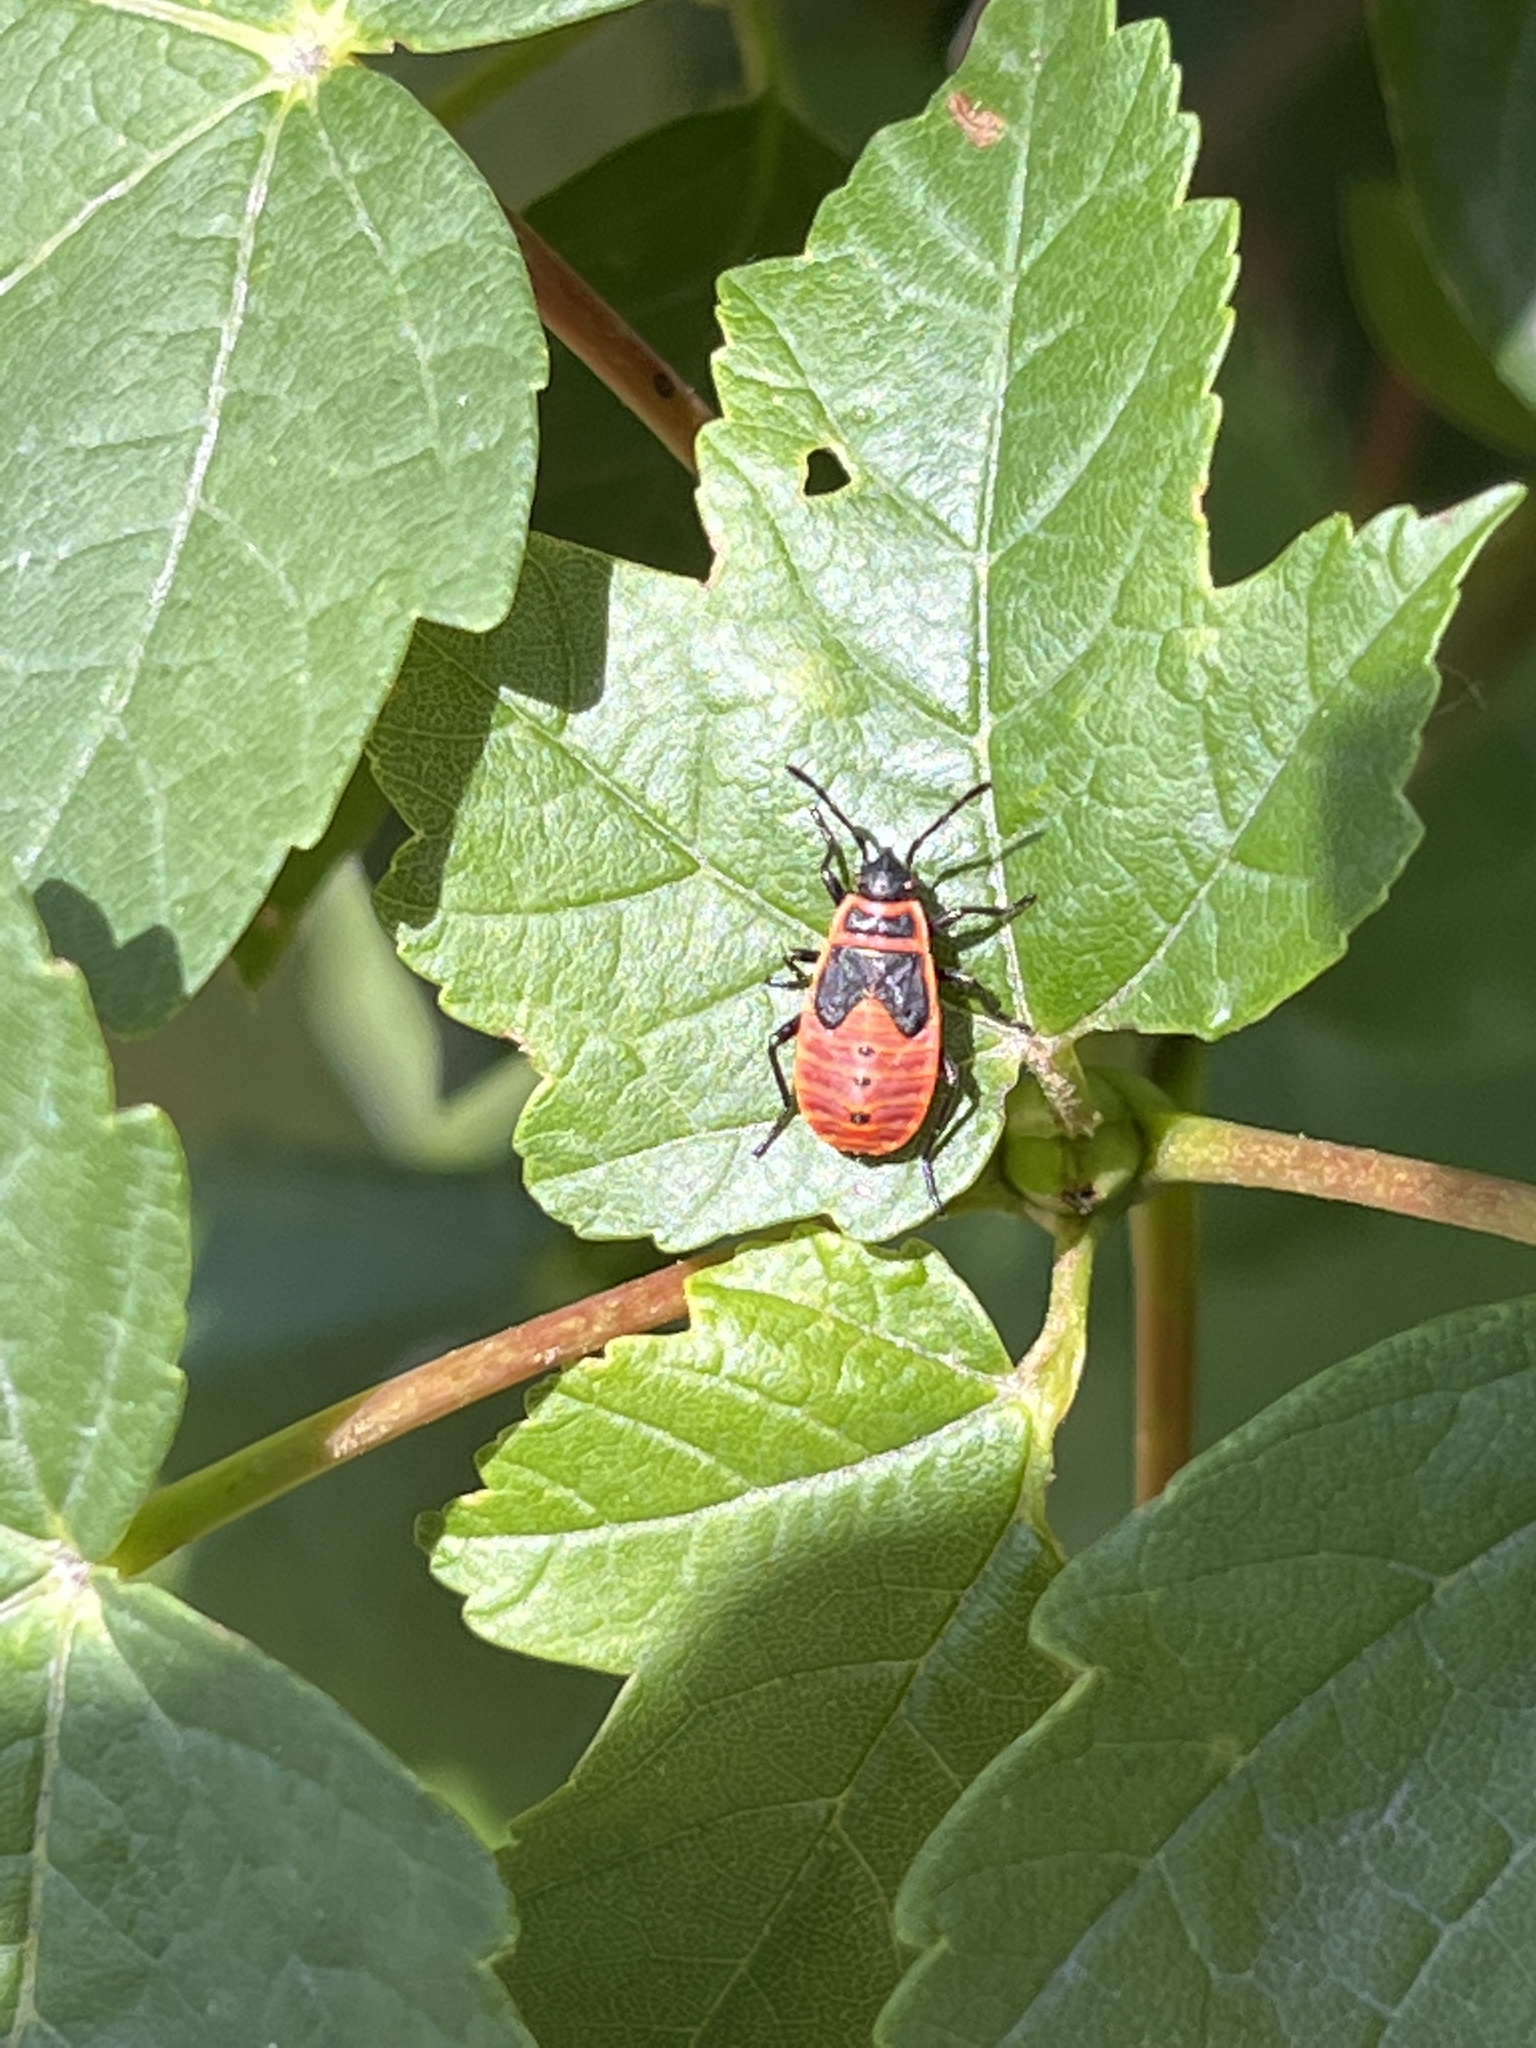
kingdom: Animalia
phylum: Arthropoda
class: Insecta
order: Hemiptera
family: Pyrrhocoridae
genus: Pyrrhocoris
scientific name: Pyrrhocoris apterus
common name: Firebug
